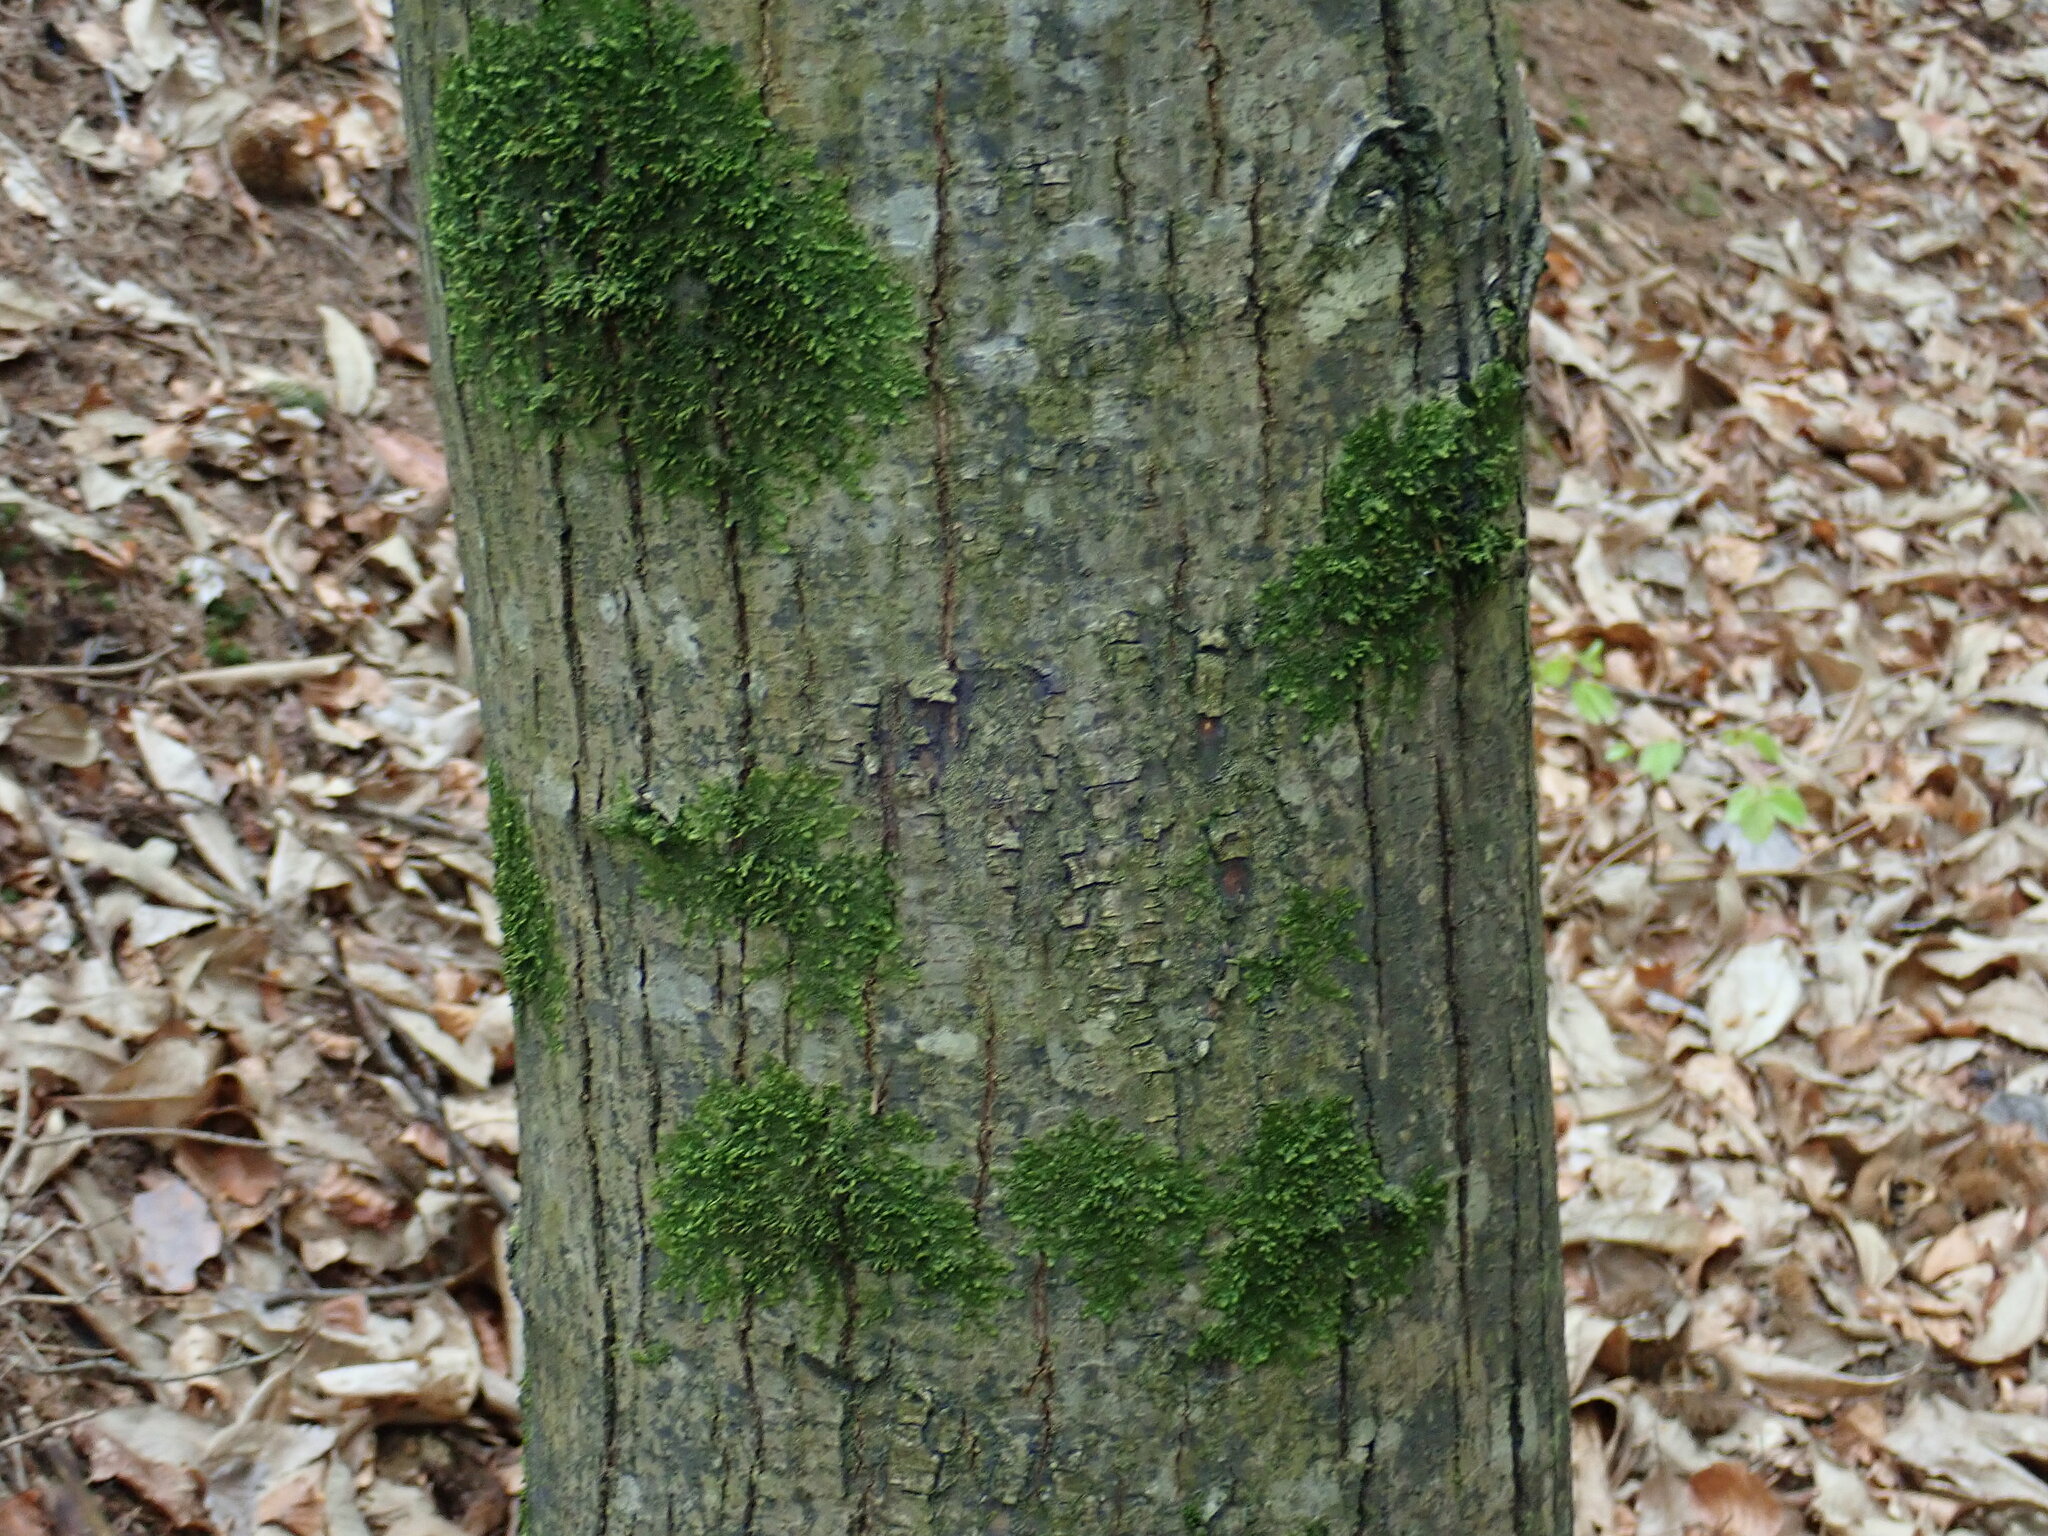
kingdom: Plantae
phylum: Tracheophyta
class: Magnoliopsida
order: Fagales
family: Fagaceae
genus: Castanea
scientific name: Castanea sativa
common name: Sweet chestnut
